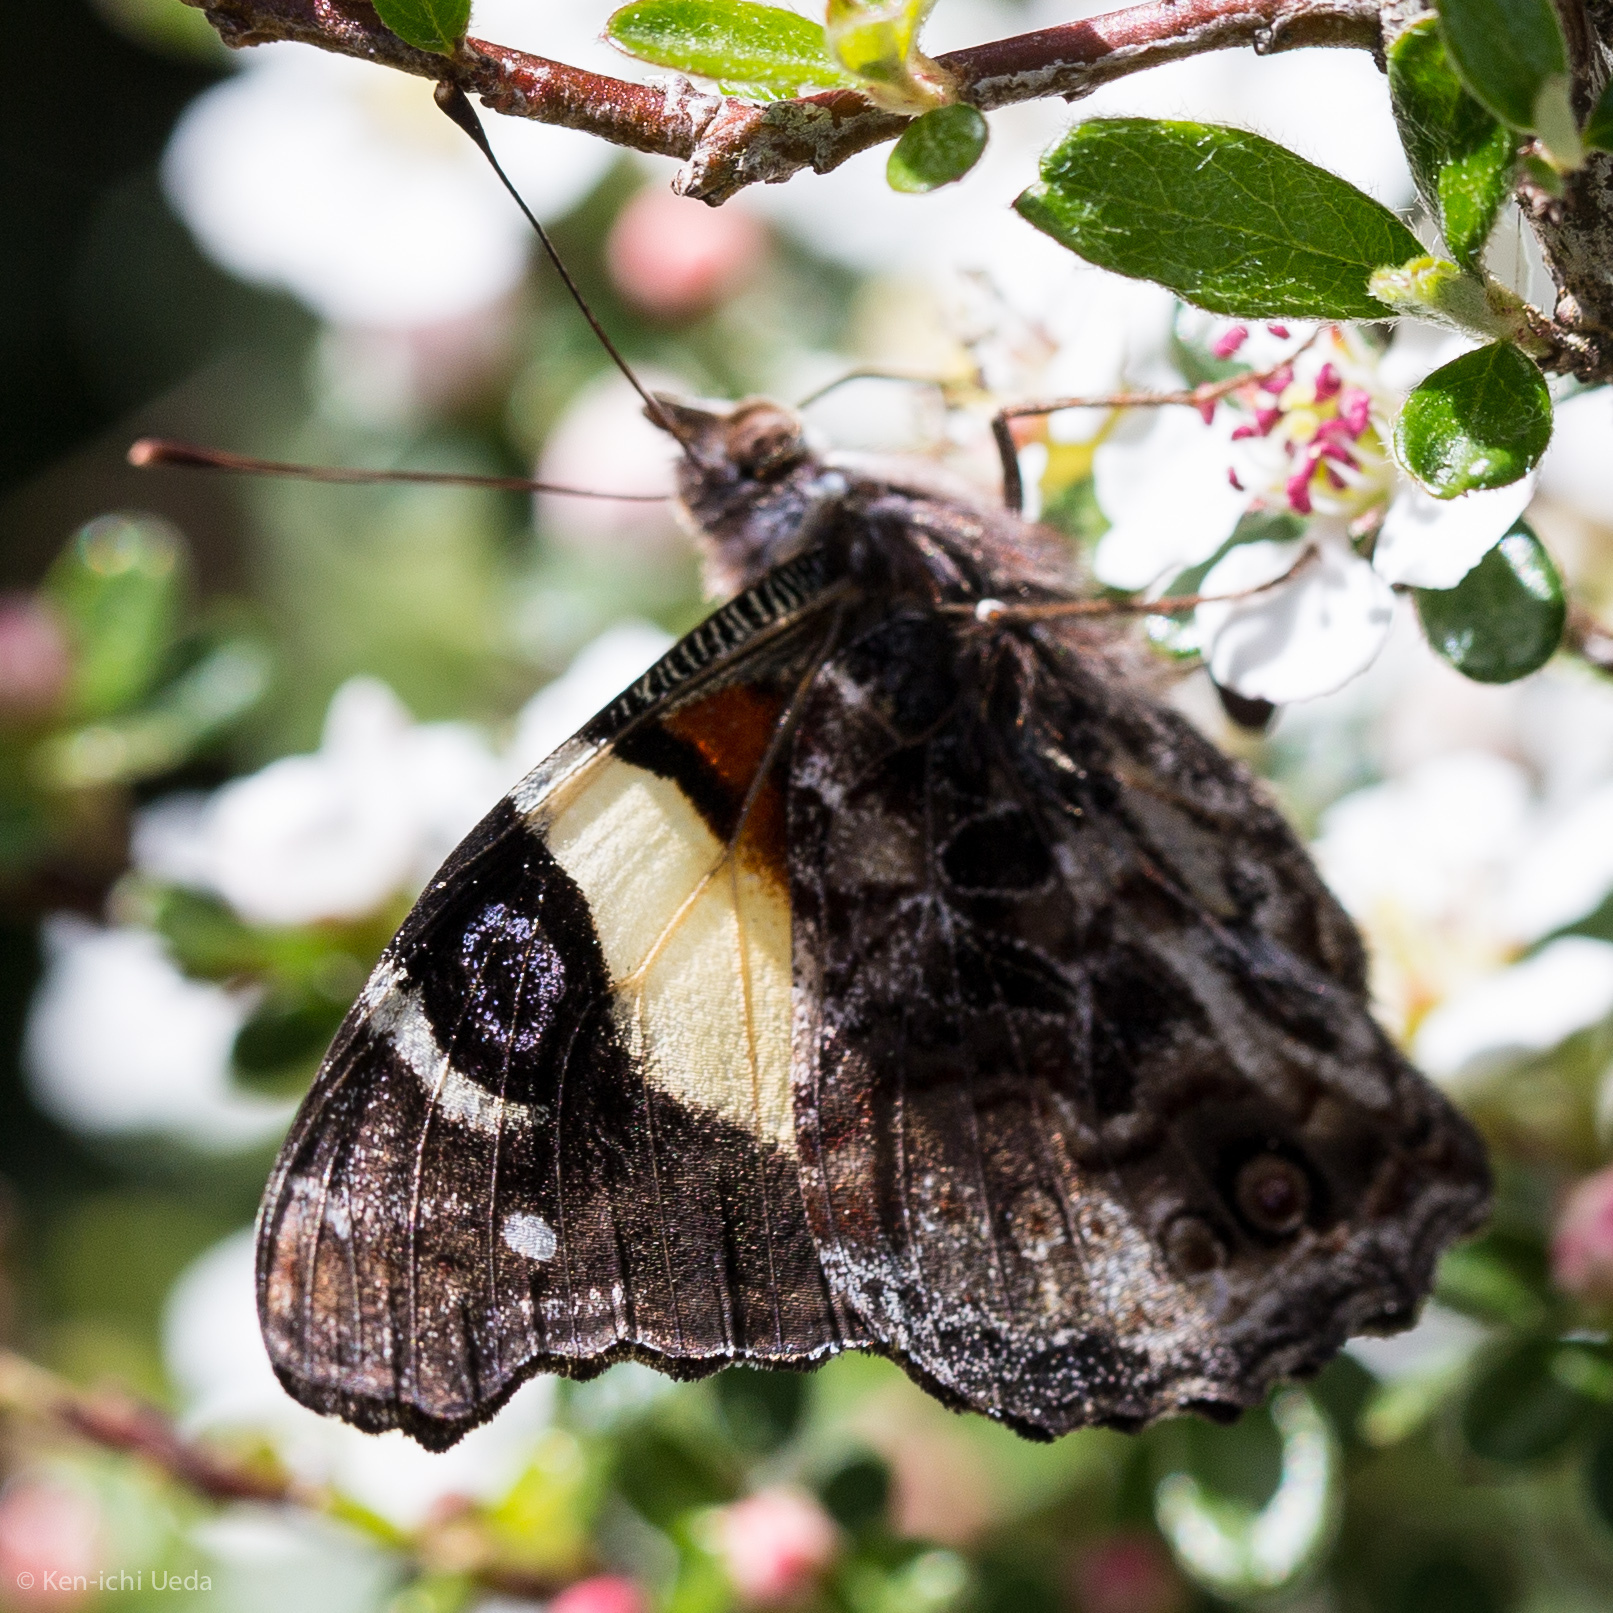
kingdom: Animalia
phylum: Arthropoda
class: Insecta
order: Lepidoptera
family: Nymphalidae
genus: Vanessa
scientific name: Vanessa itea
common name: Yellow admiral
